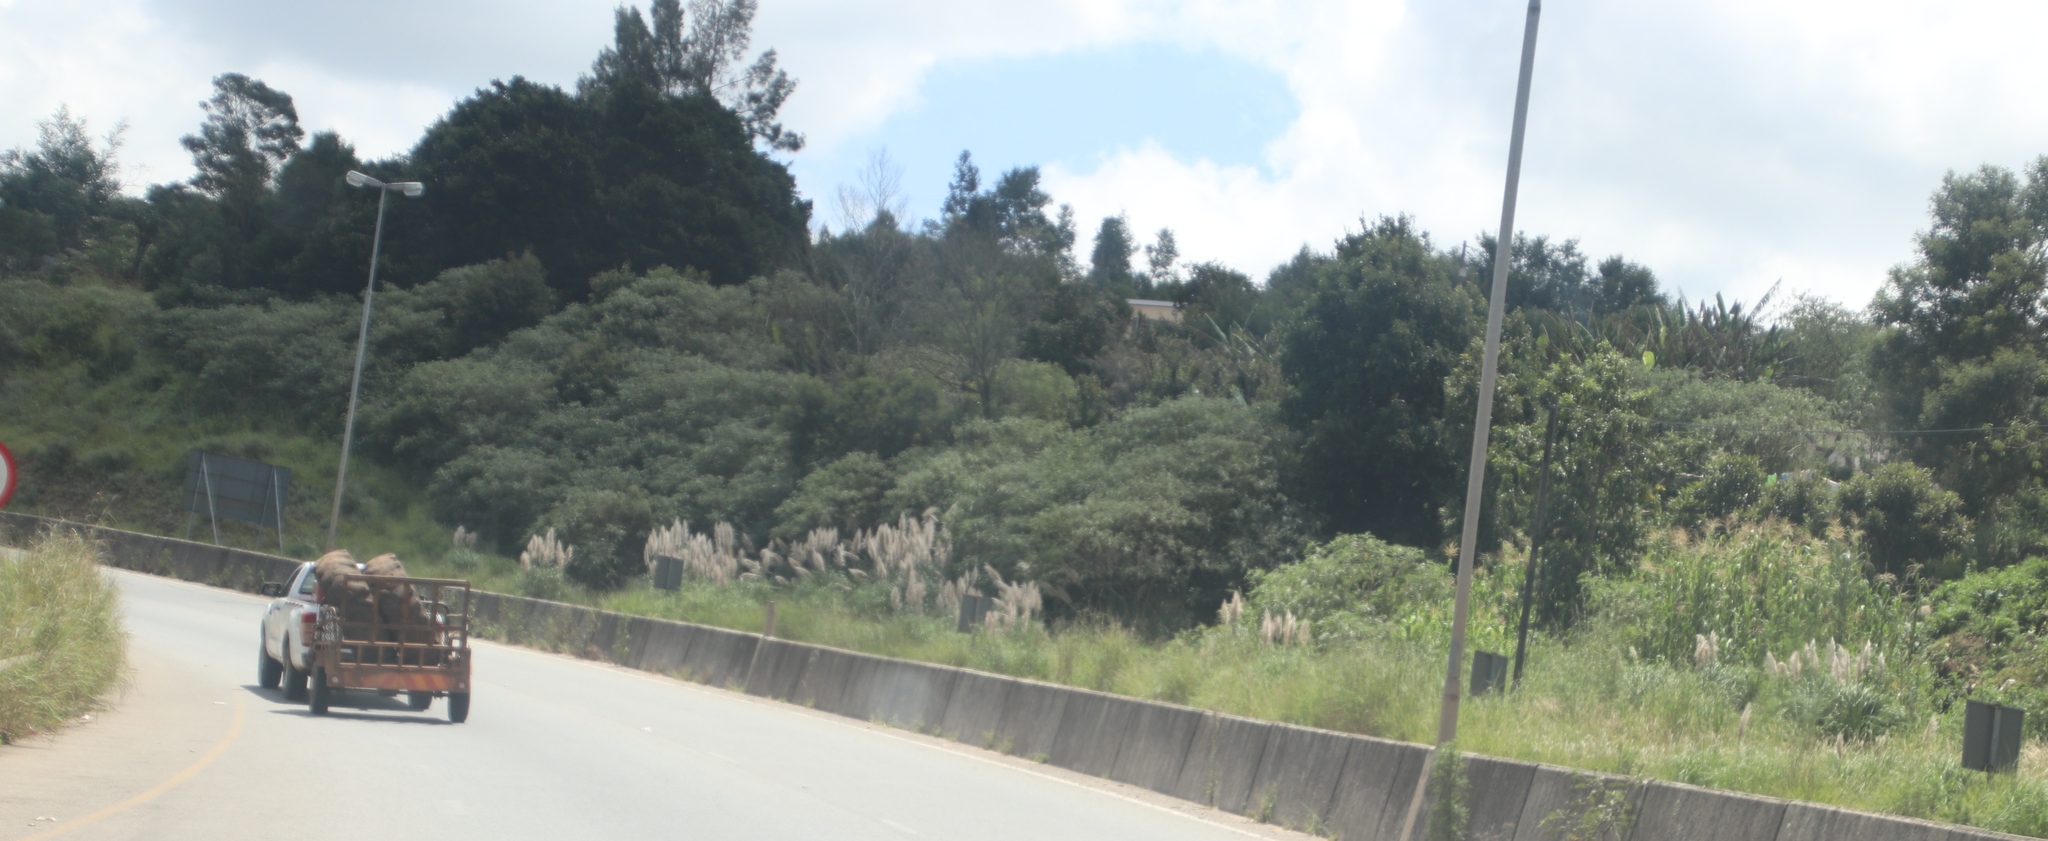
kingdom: Plantae
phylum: Tracheophyta
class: Liliopsida
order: Poales
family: Poaceae
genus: Cortaderia
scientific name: Cortaderia selloana
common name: Uruguayan pampas grass
